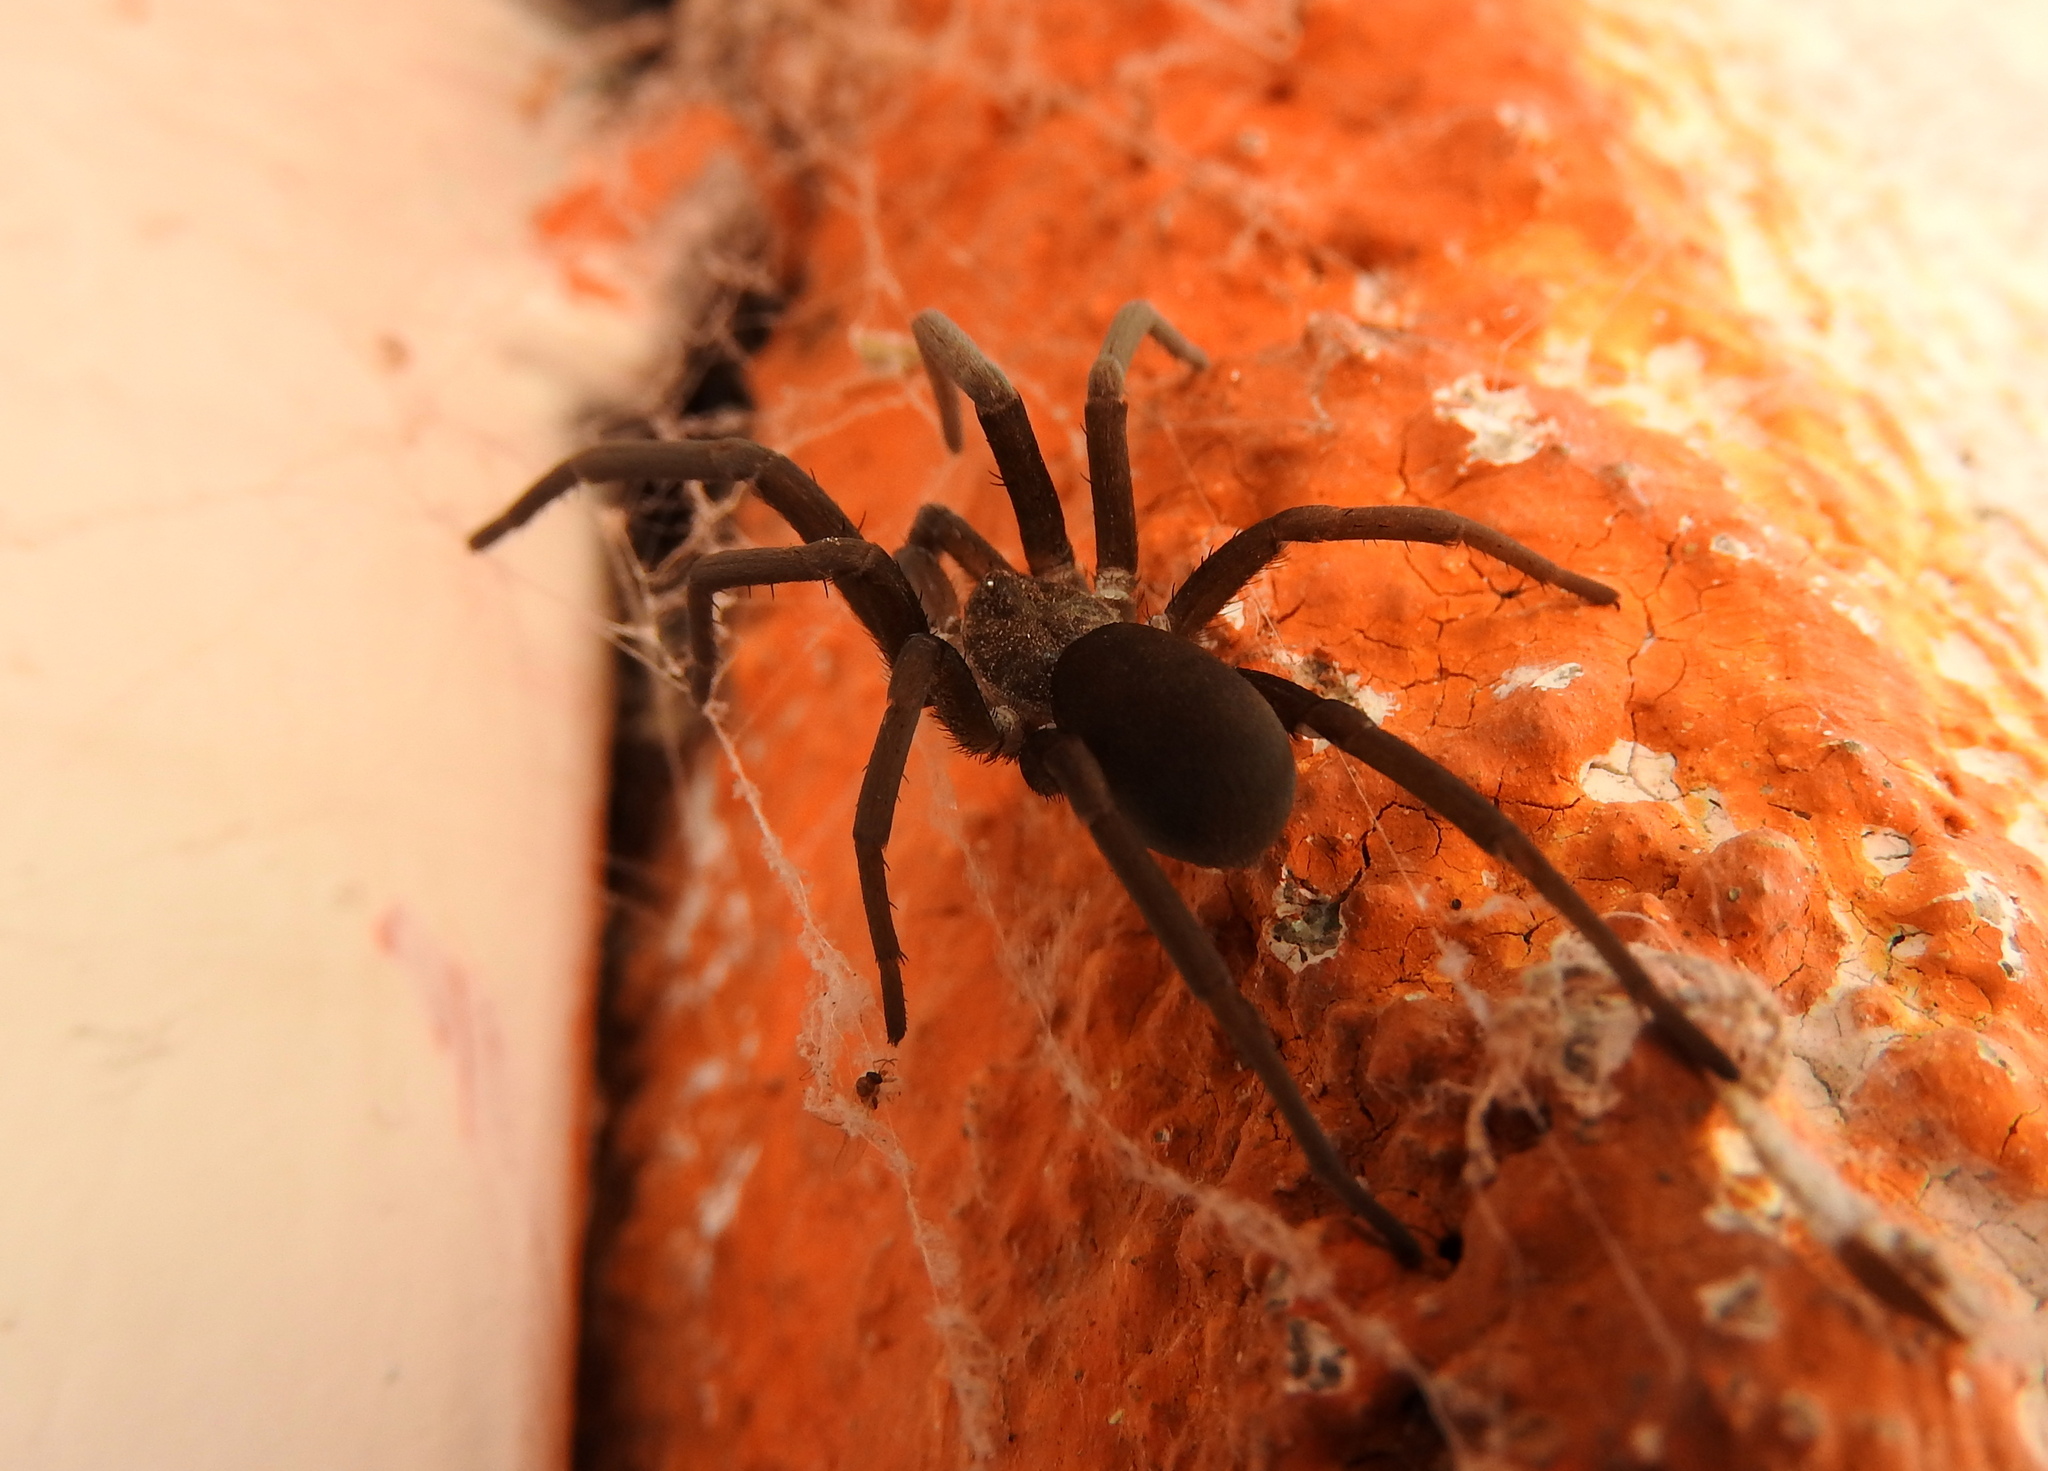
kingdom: Animalia
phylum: Arthropoda
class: Arachnida
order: Araneae
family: Filistatidae
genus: Kukulcania
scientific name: Kukulcania hibernalis
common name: Crevice weaver
